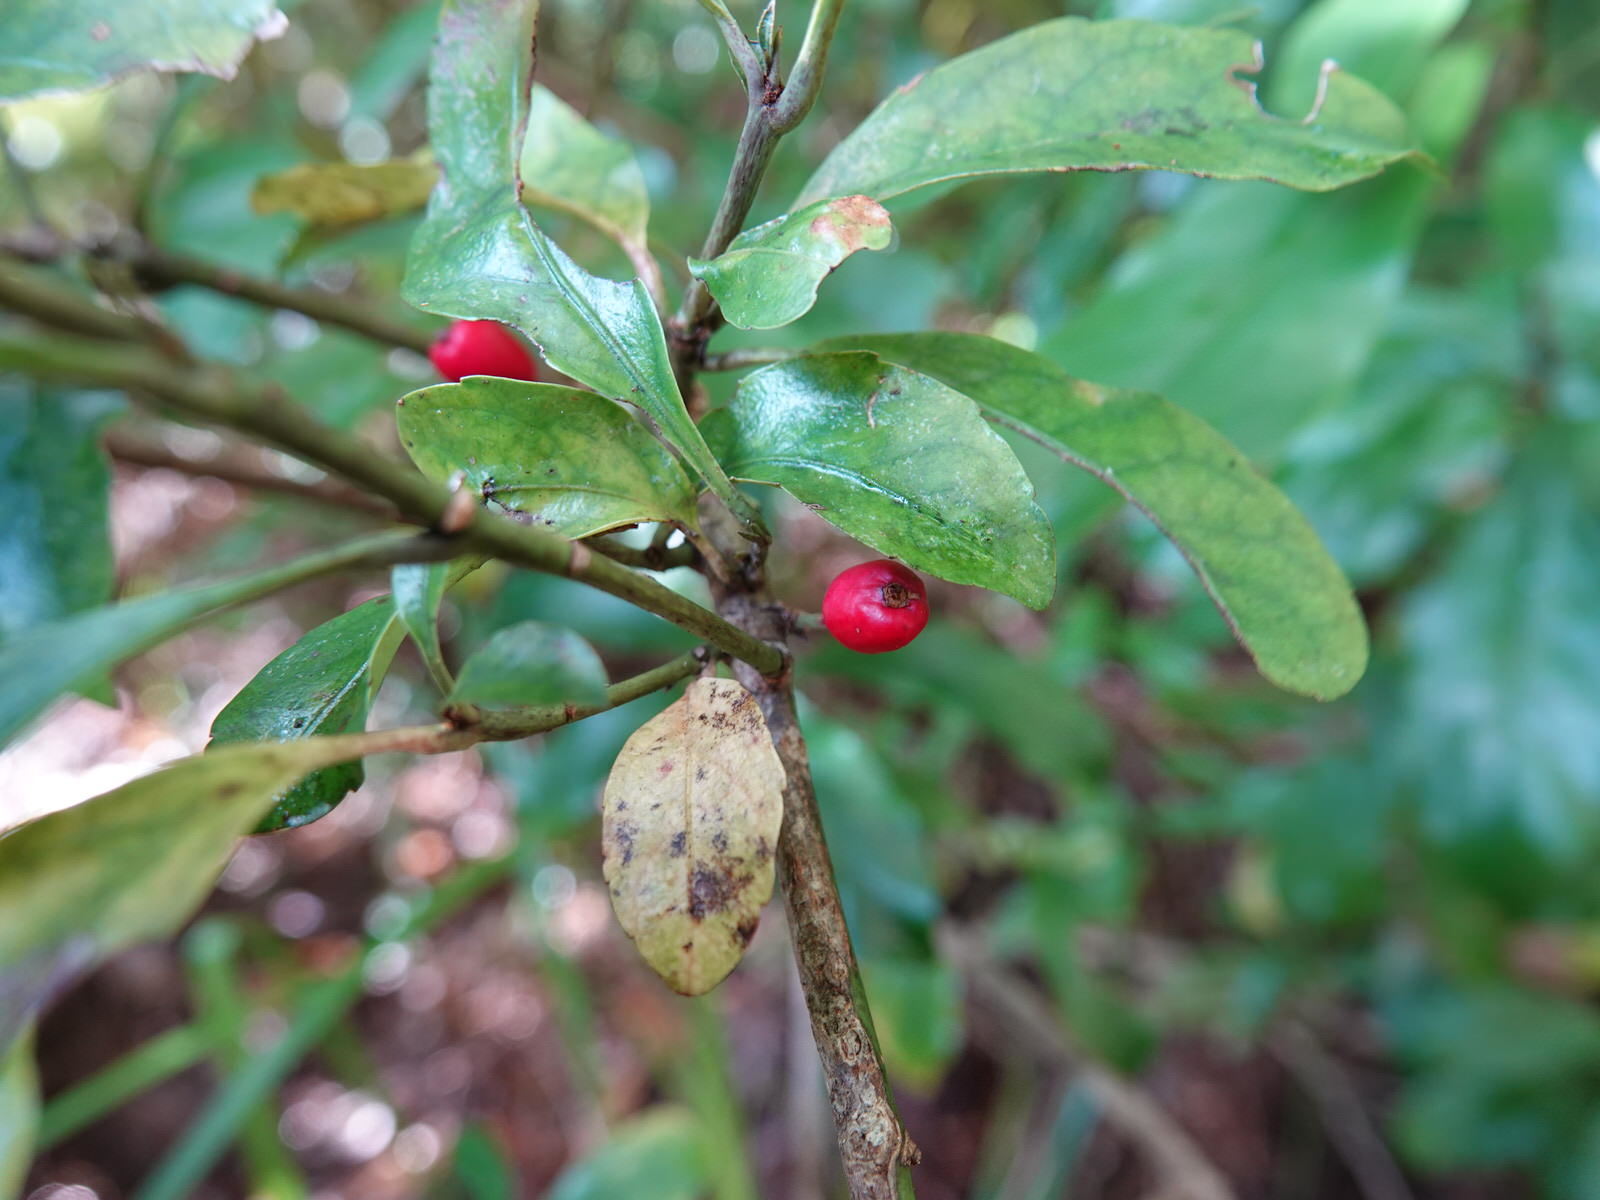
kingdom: Plantae
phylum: Tracheophyta
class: Magnoliopsida
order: Asterales
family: Alseuosmiaceae
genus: Alseuosmia
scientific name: Alseuosmia macrophylla
